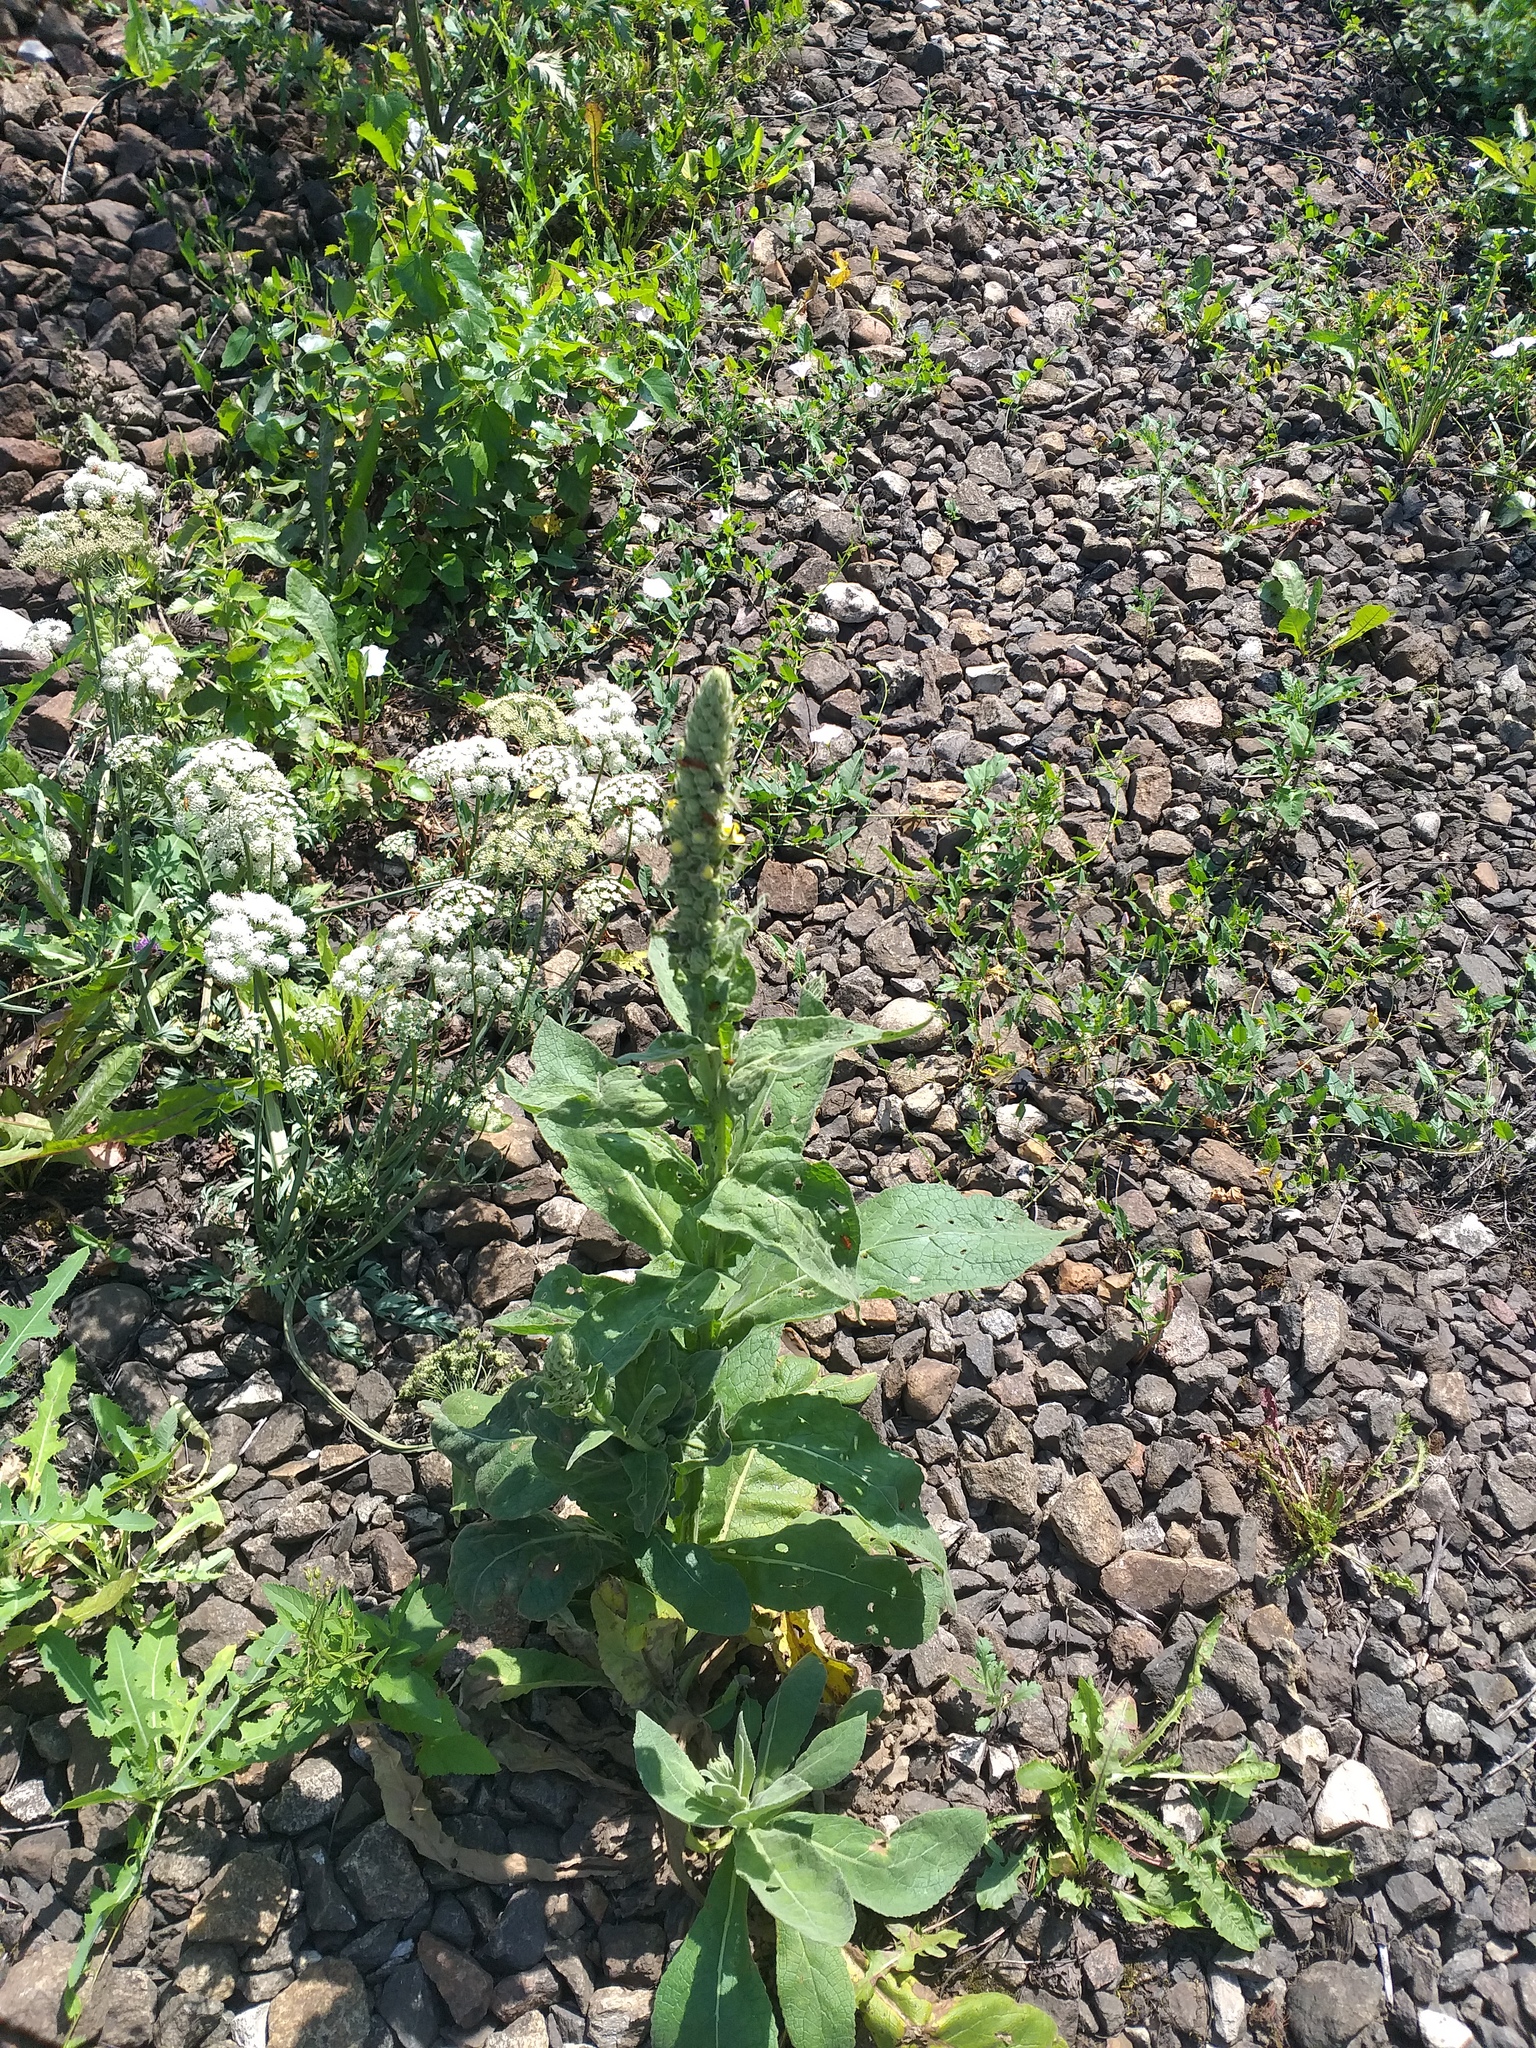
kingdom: Plantae
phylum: Tracheophyta
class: Magnoliopsida
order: Lamiales
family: Scrophulariaceae
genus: Verbascum
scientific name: Verbascum thapsus
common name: Common mullein
